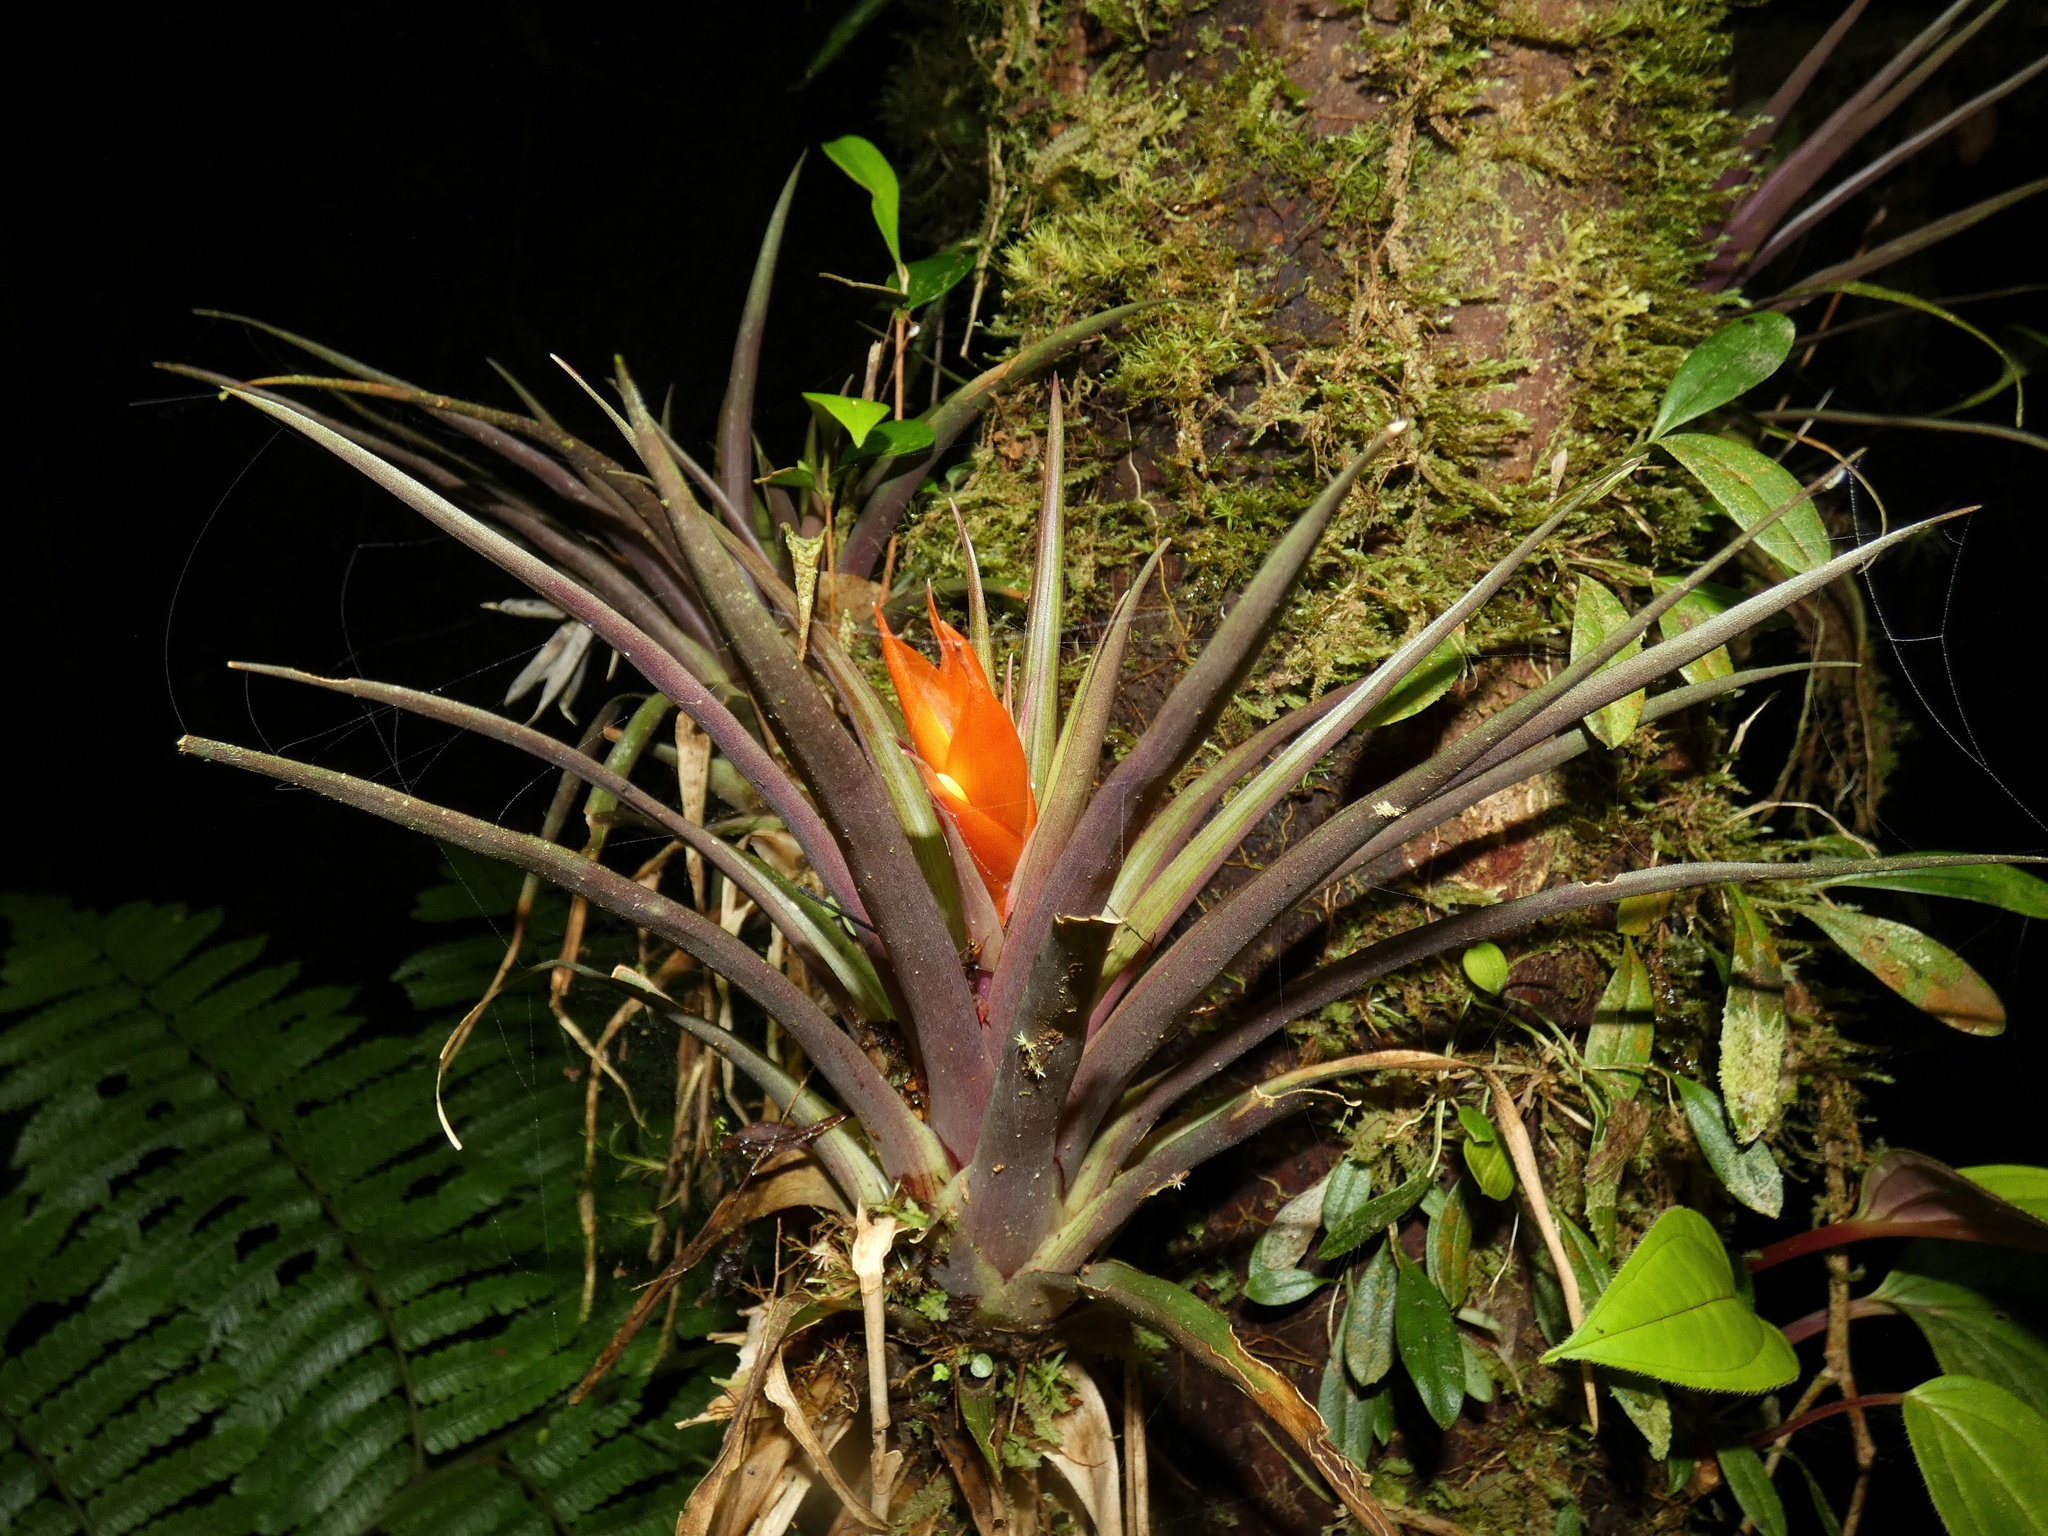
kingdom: Plantae
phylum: Tracheophyta
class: Liliopsida
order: Poales
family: Bromeliaceae
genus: Guzmania
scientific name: Guzmania angustifolia
